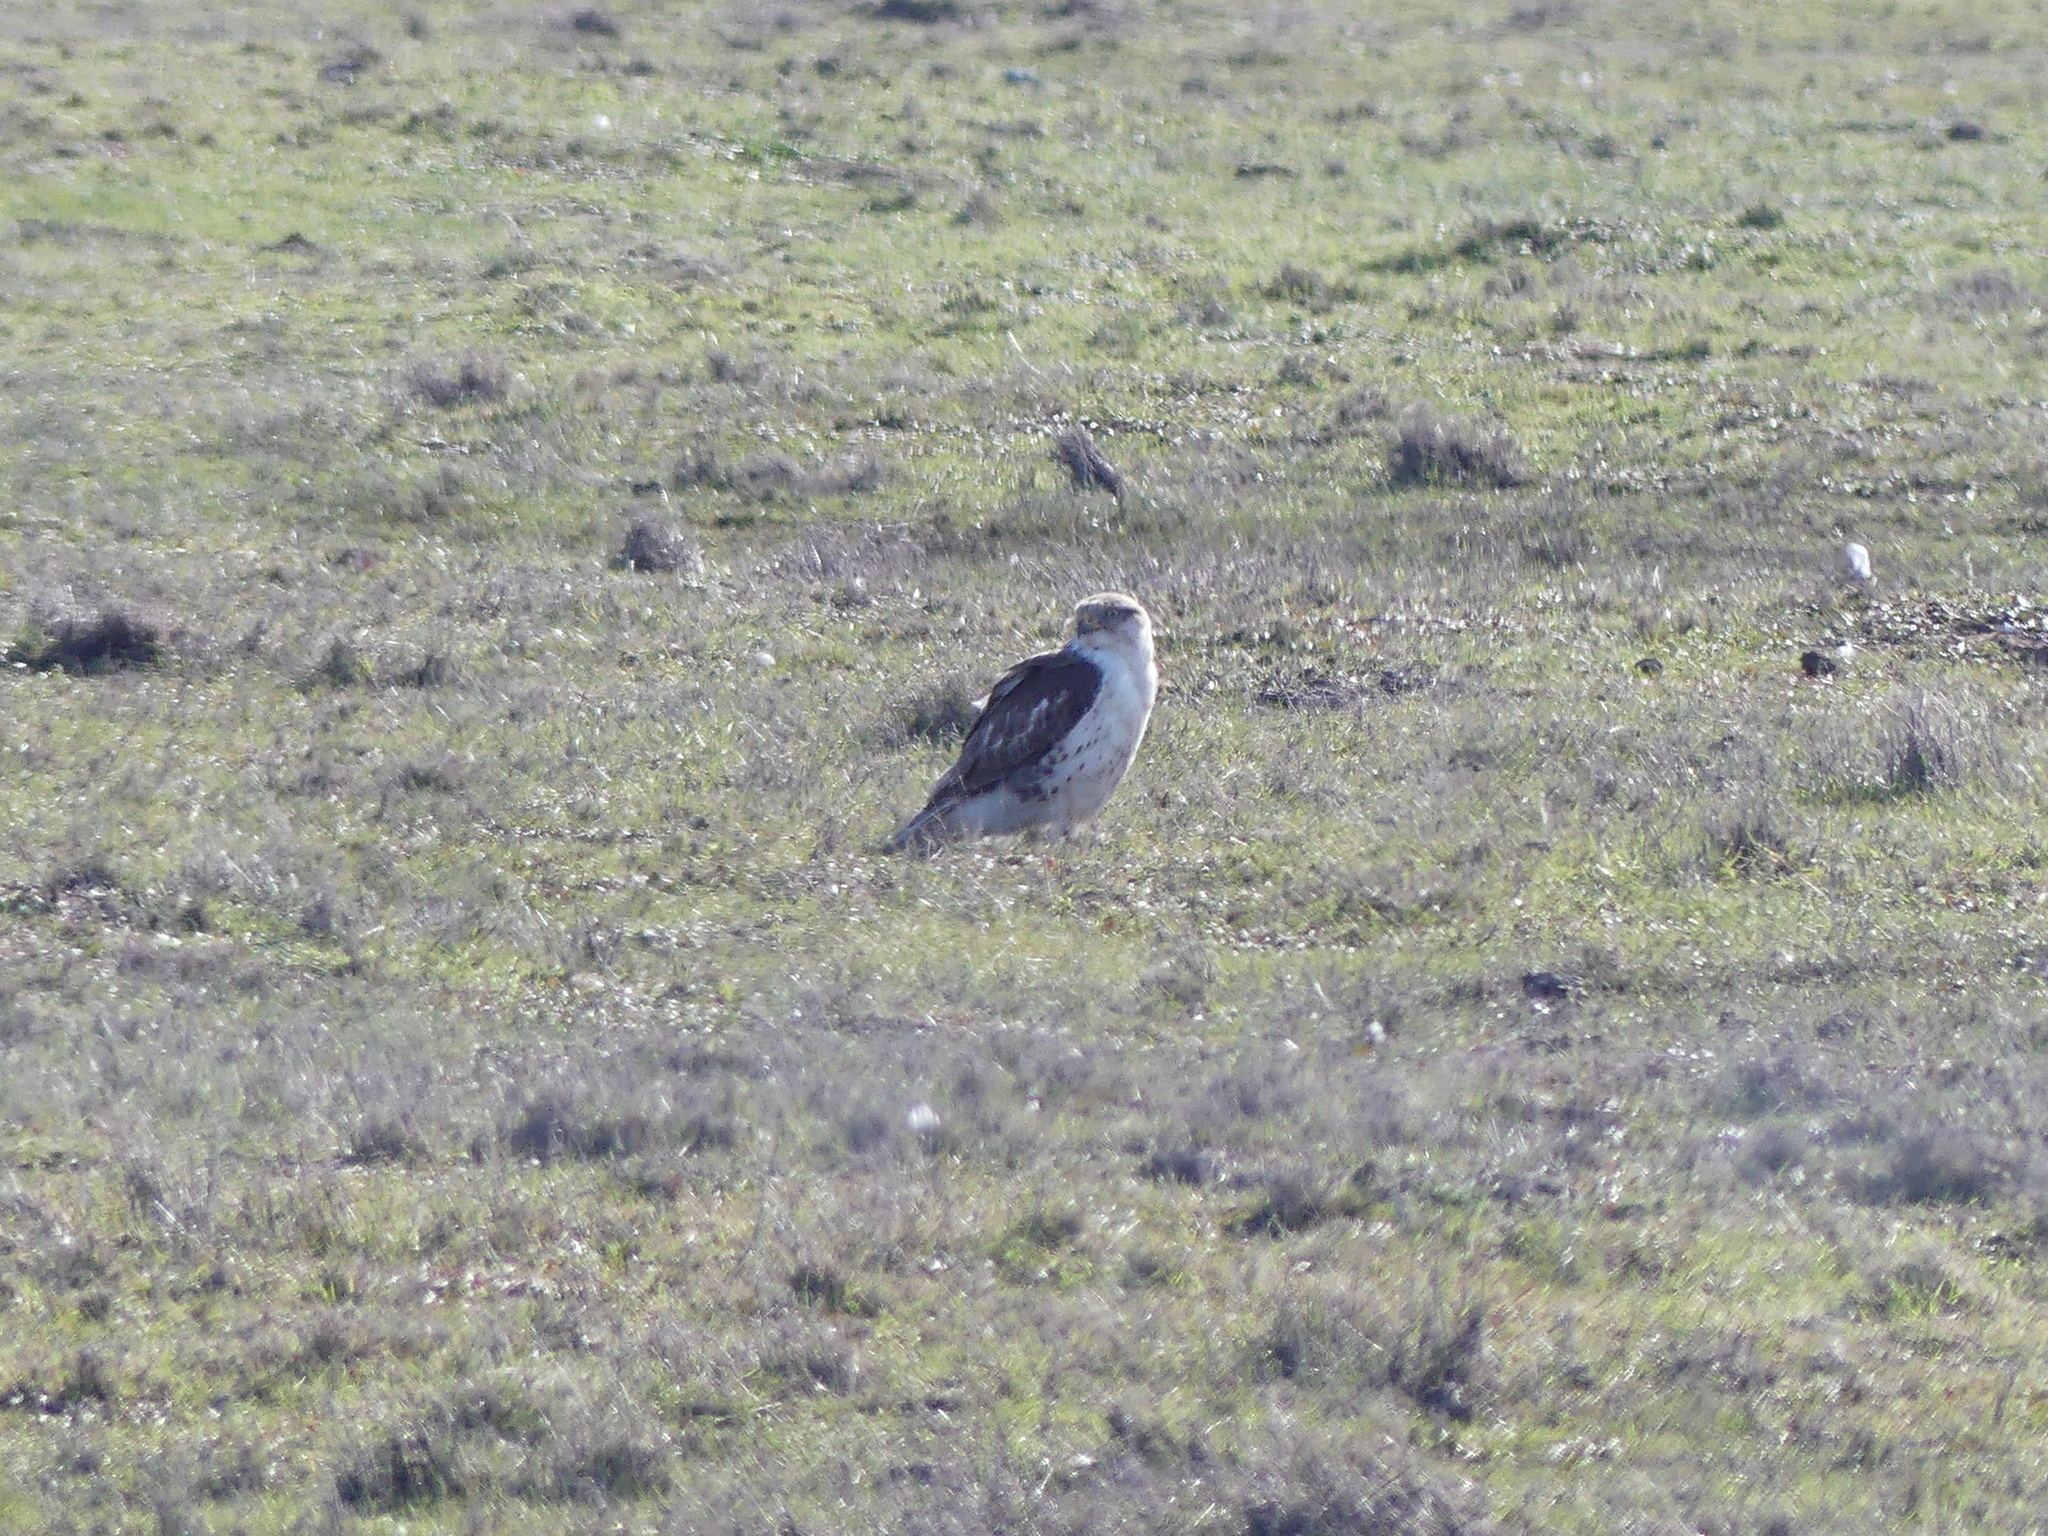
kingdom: Animalia
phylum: Chordata
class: Aves
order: Accipitriformes
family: Accipitridae
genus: Buteo
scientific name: Buteo regalis
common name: Ferruginous hawk
